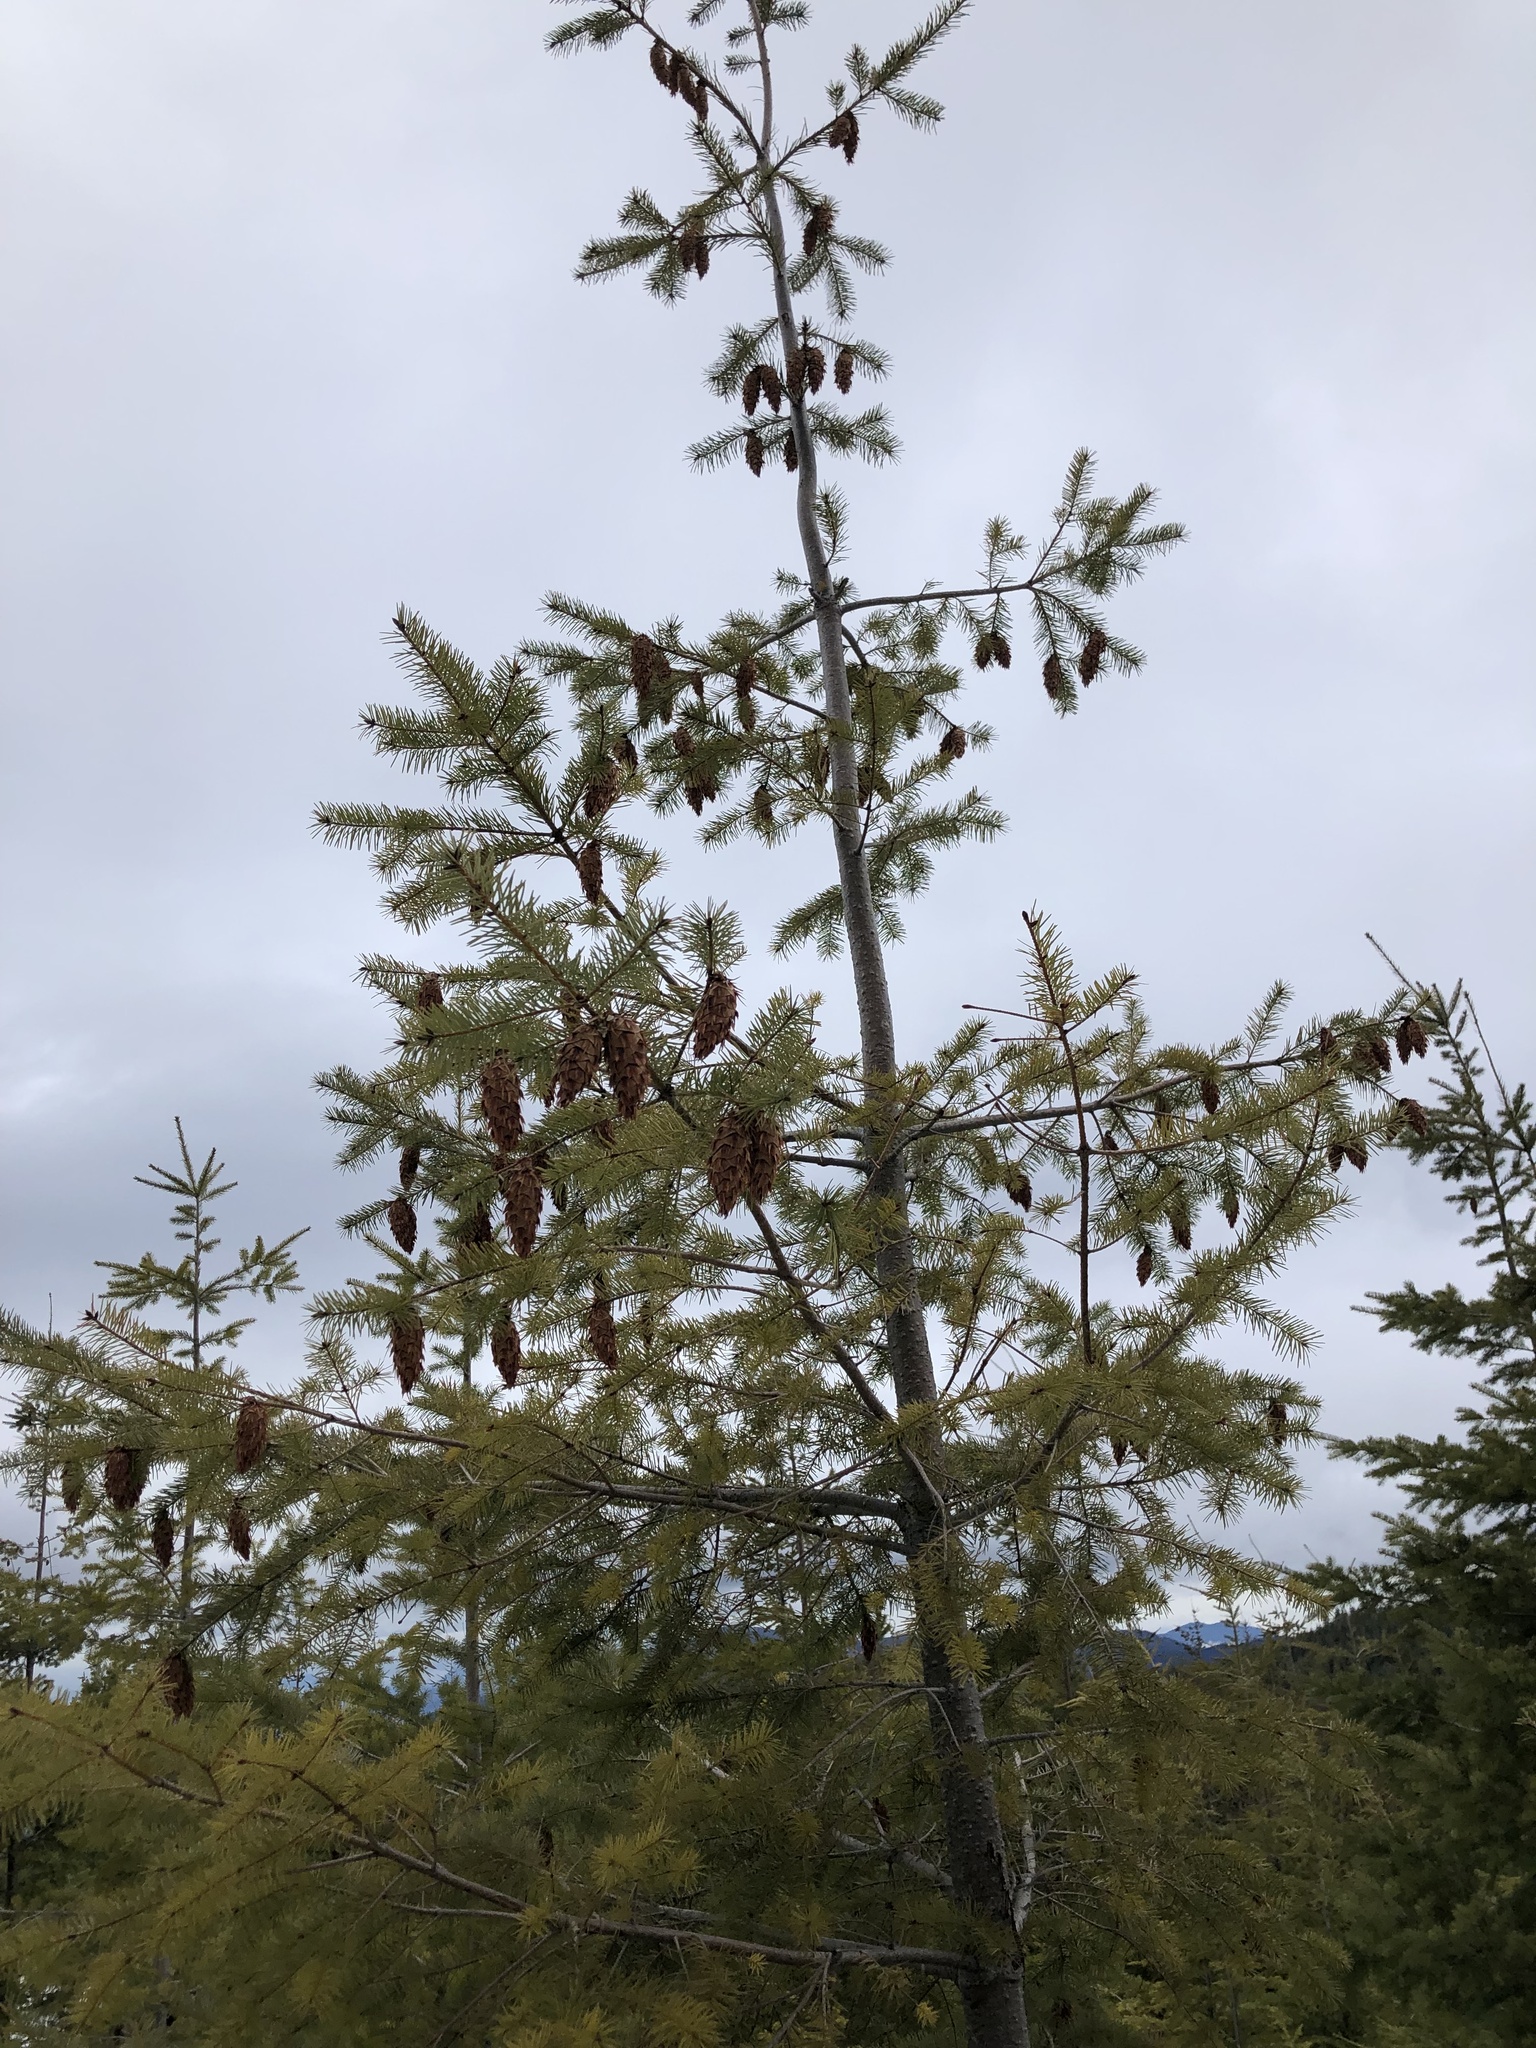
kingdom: Plantae
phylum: Tracheophyta
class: Pinopsida
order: Pinales
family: Pinaceae
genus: Pseudotsuga
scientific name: Pseudotsuga menziesii
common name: Douglas fir
